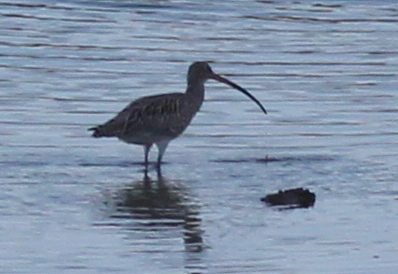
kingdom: Animalia
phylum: Chordata
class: Aves
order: Charadriiformes
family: Scolopacidae
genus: Numenius
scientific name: Numenius arquata
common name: Eurasian curlew
